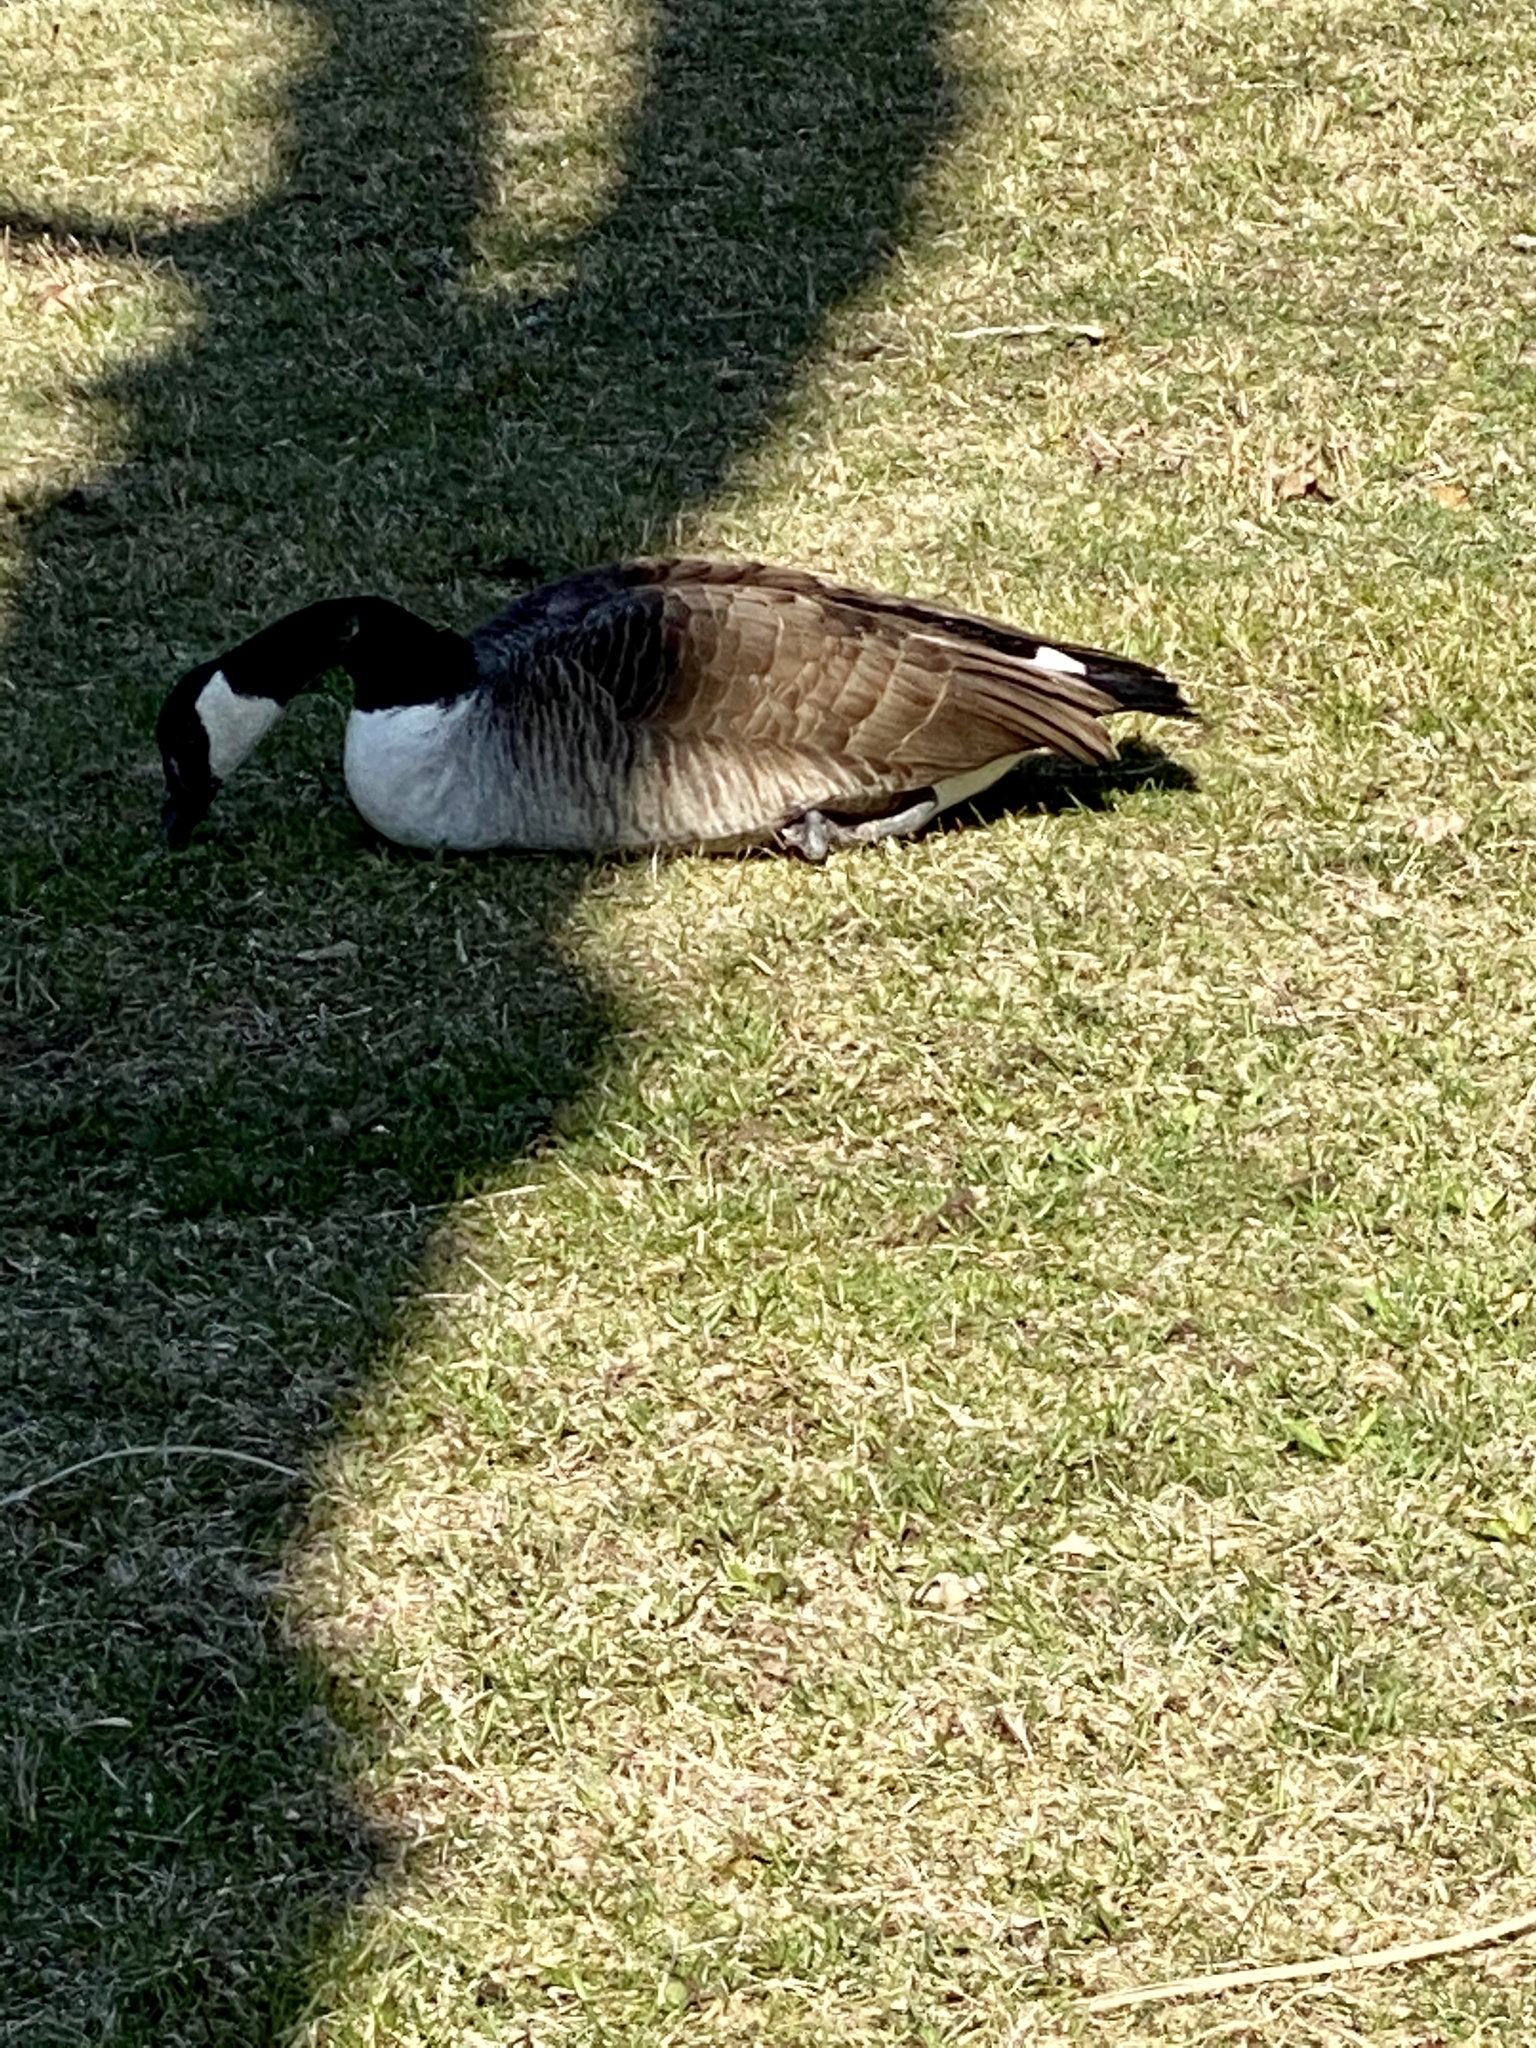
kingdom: Animalia
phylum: Chordata
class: Aves
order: Anseriformes
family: Anatidae
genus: Branta
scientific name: Branta canadensis
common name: Canada goose
